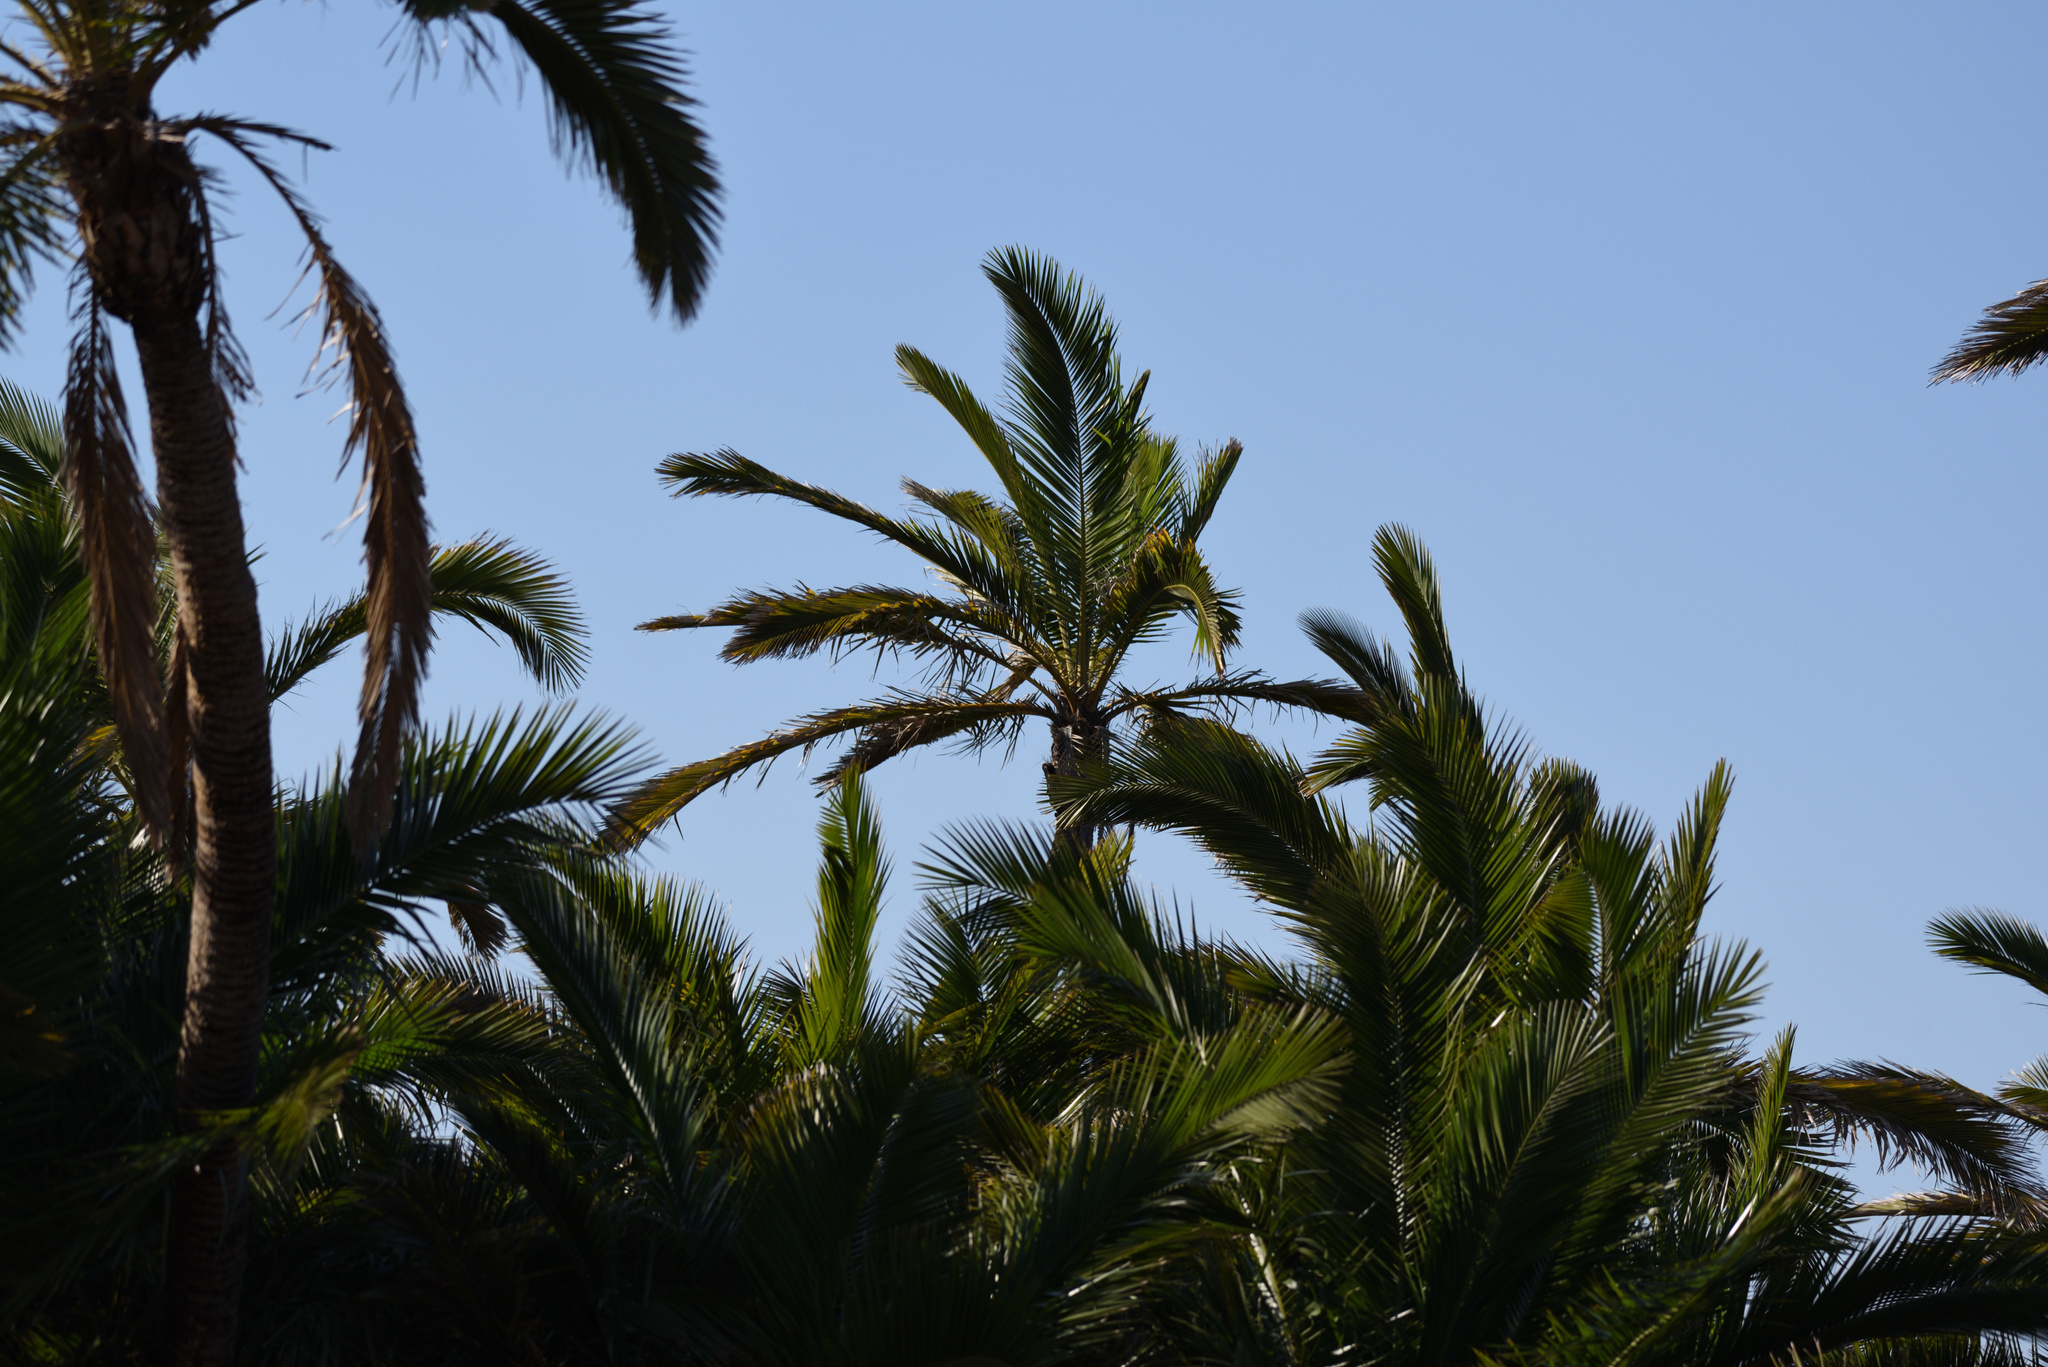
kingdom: Plantae
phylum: Tracheophyta
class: Liliopsida
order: Arecales
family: Arecaceae
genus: Phoenix
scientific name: Phoenix reclinata
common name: Senegal date palm
